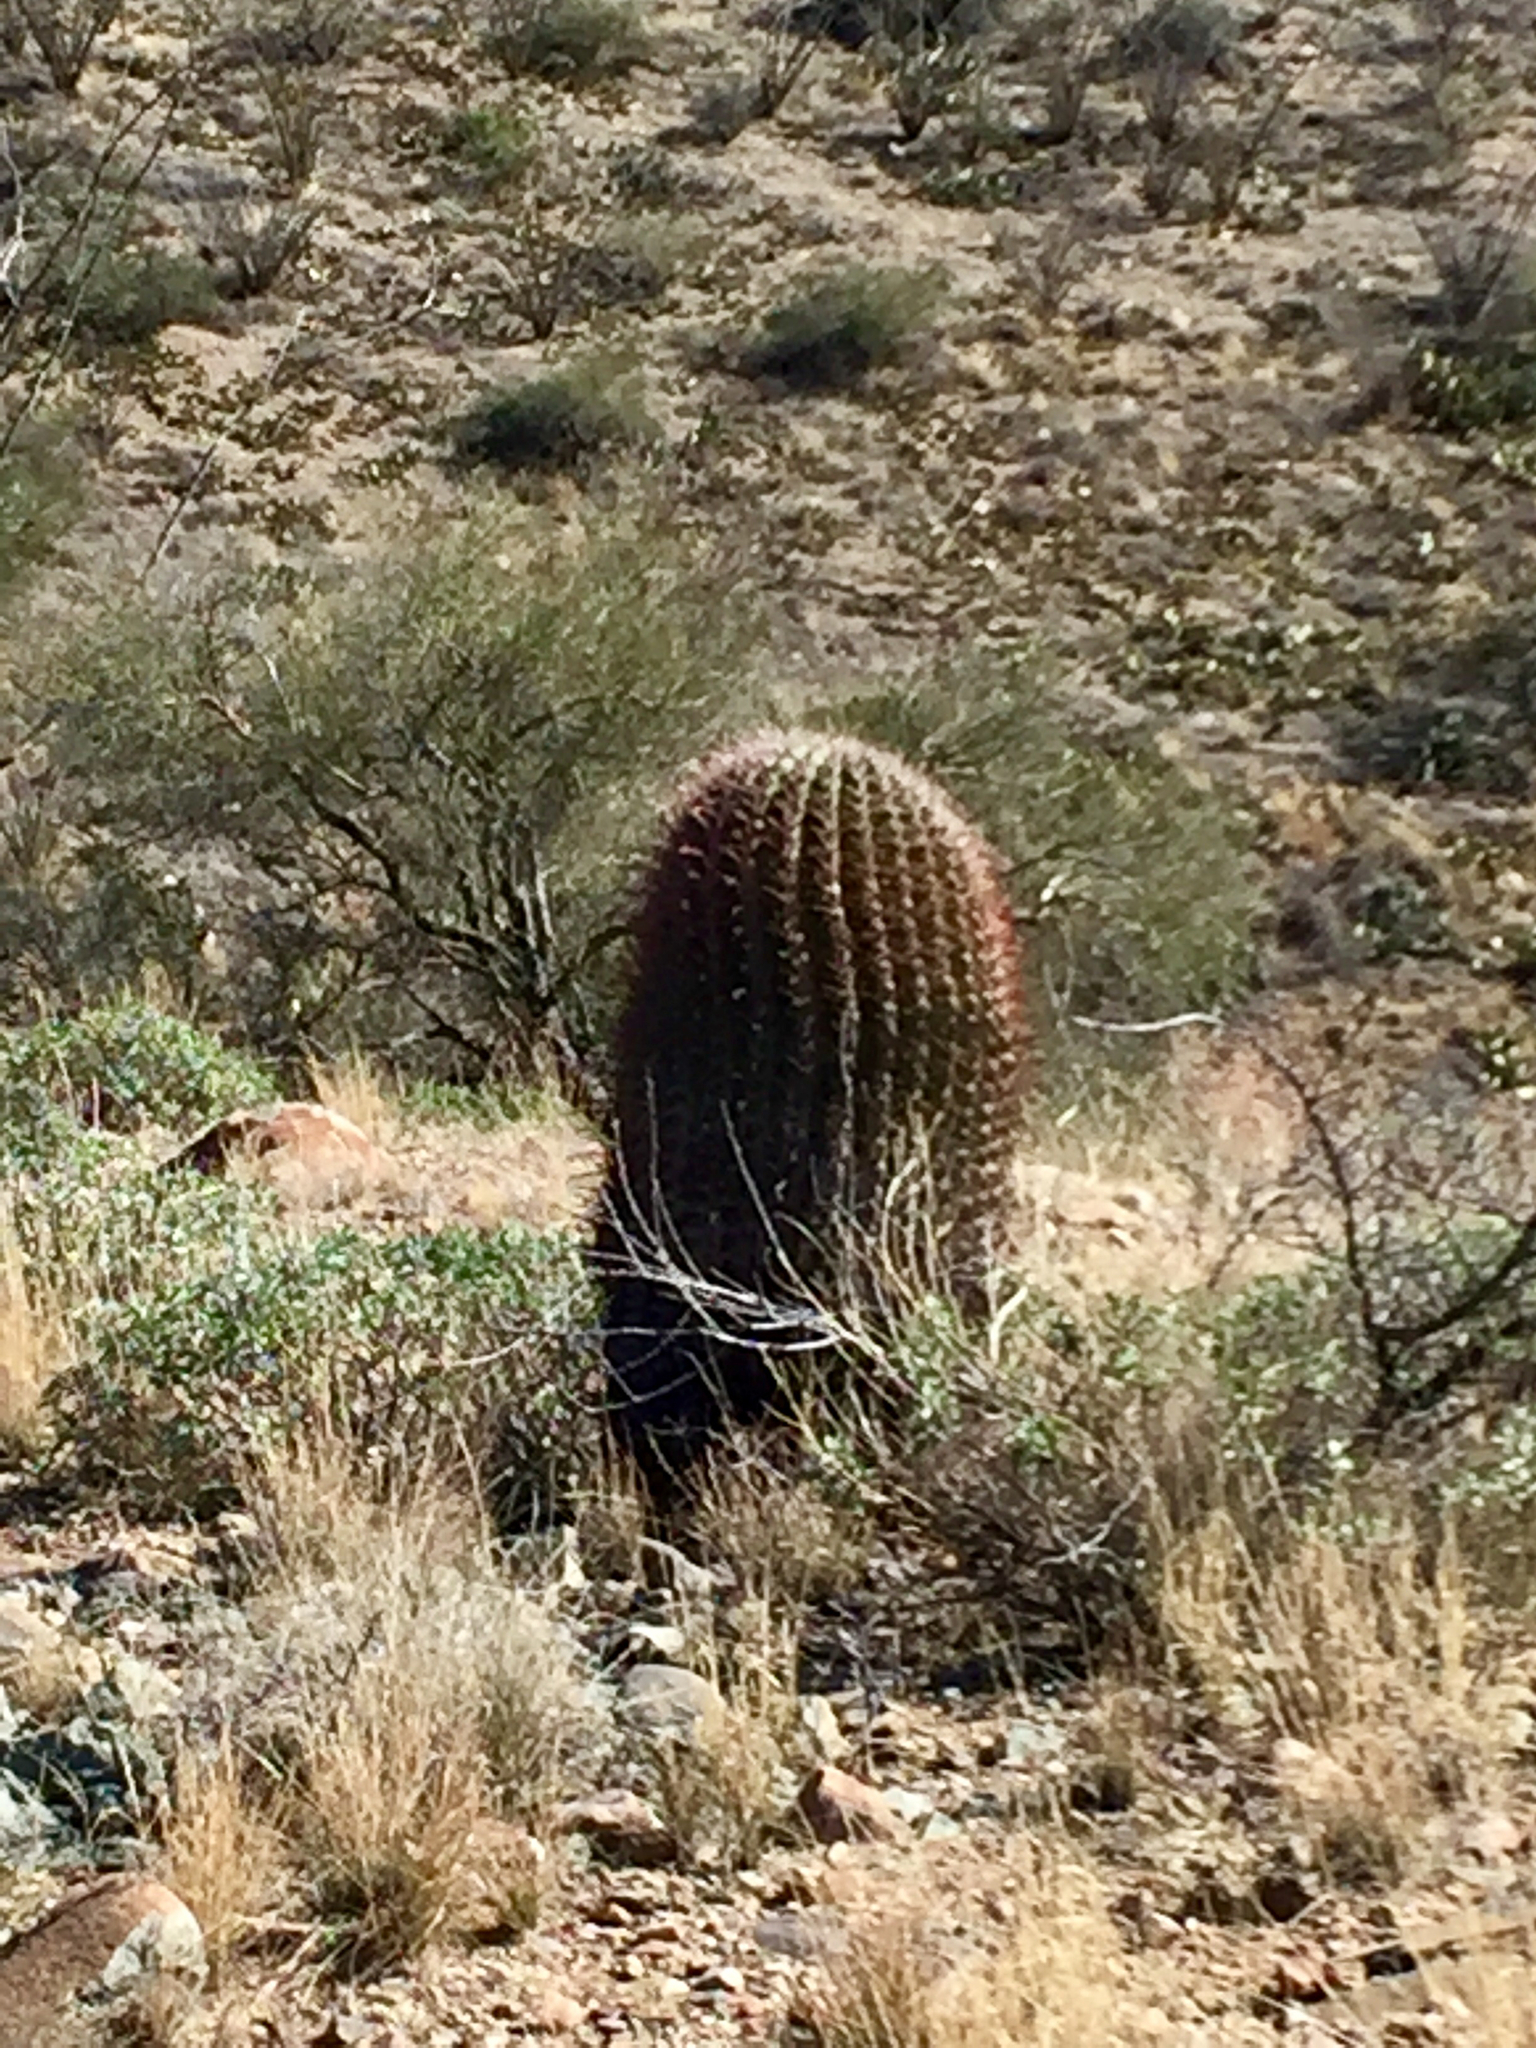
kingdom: Plantae
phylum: Tracheophyta
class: Magnoliopsida
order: Caryophyllales
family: Cactaceae
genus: Ferocactus
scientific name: Ferocactus wislizeni
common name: Candy barrel cactus
